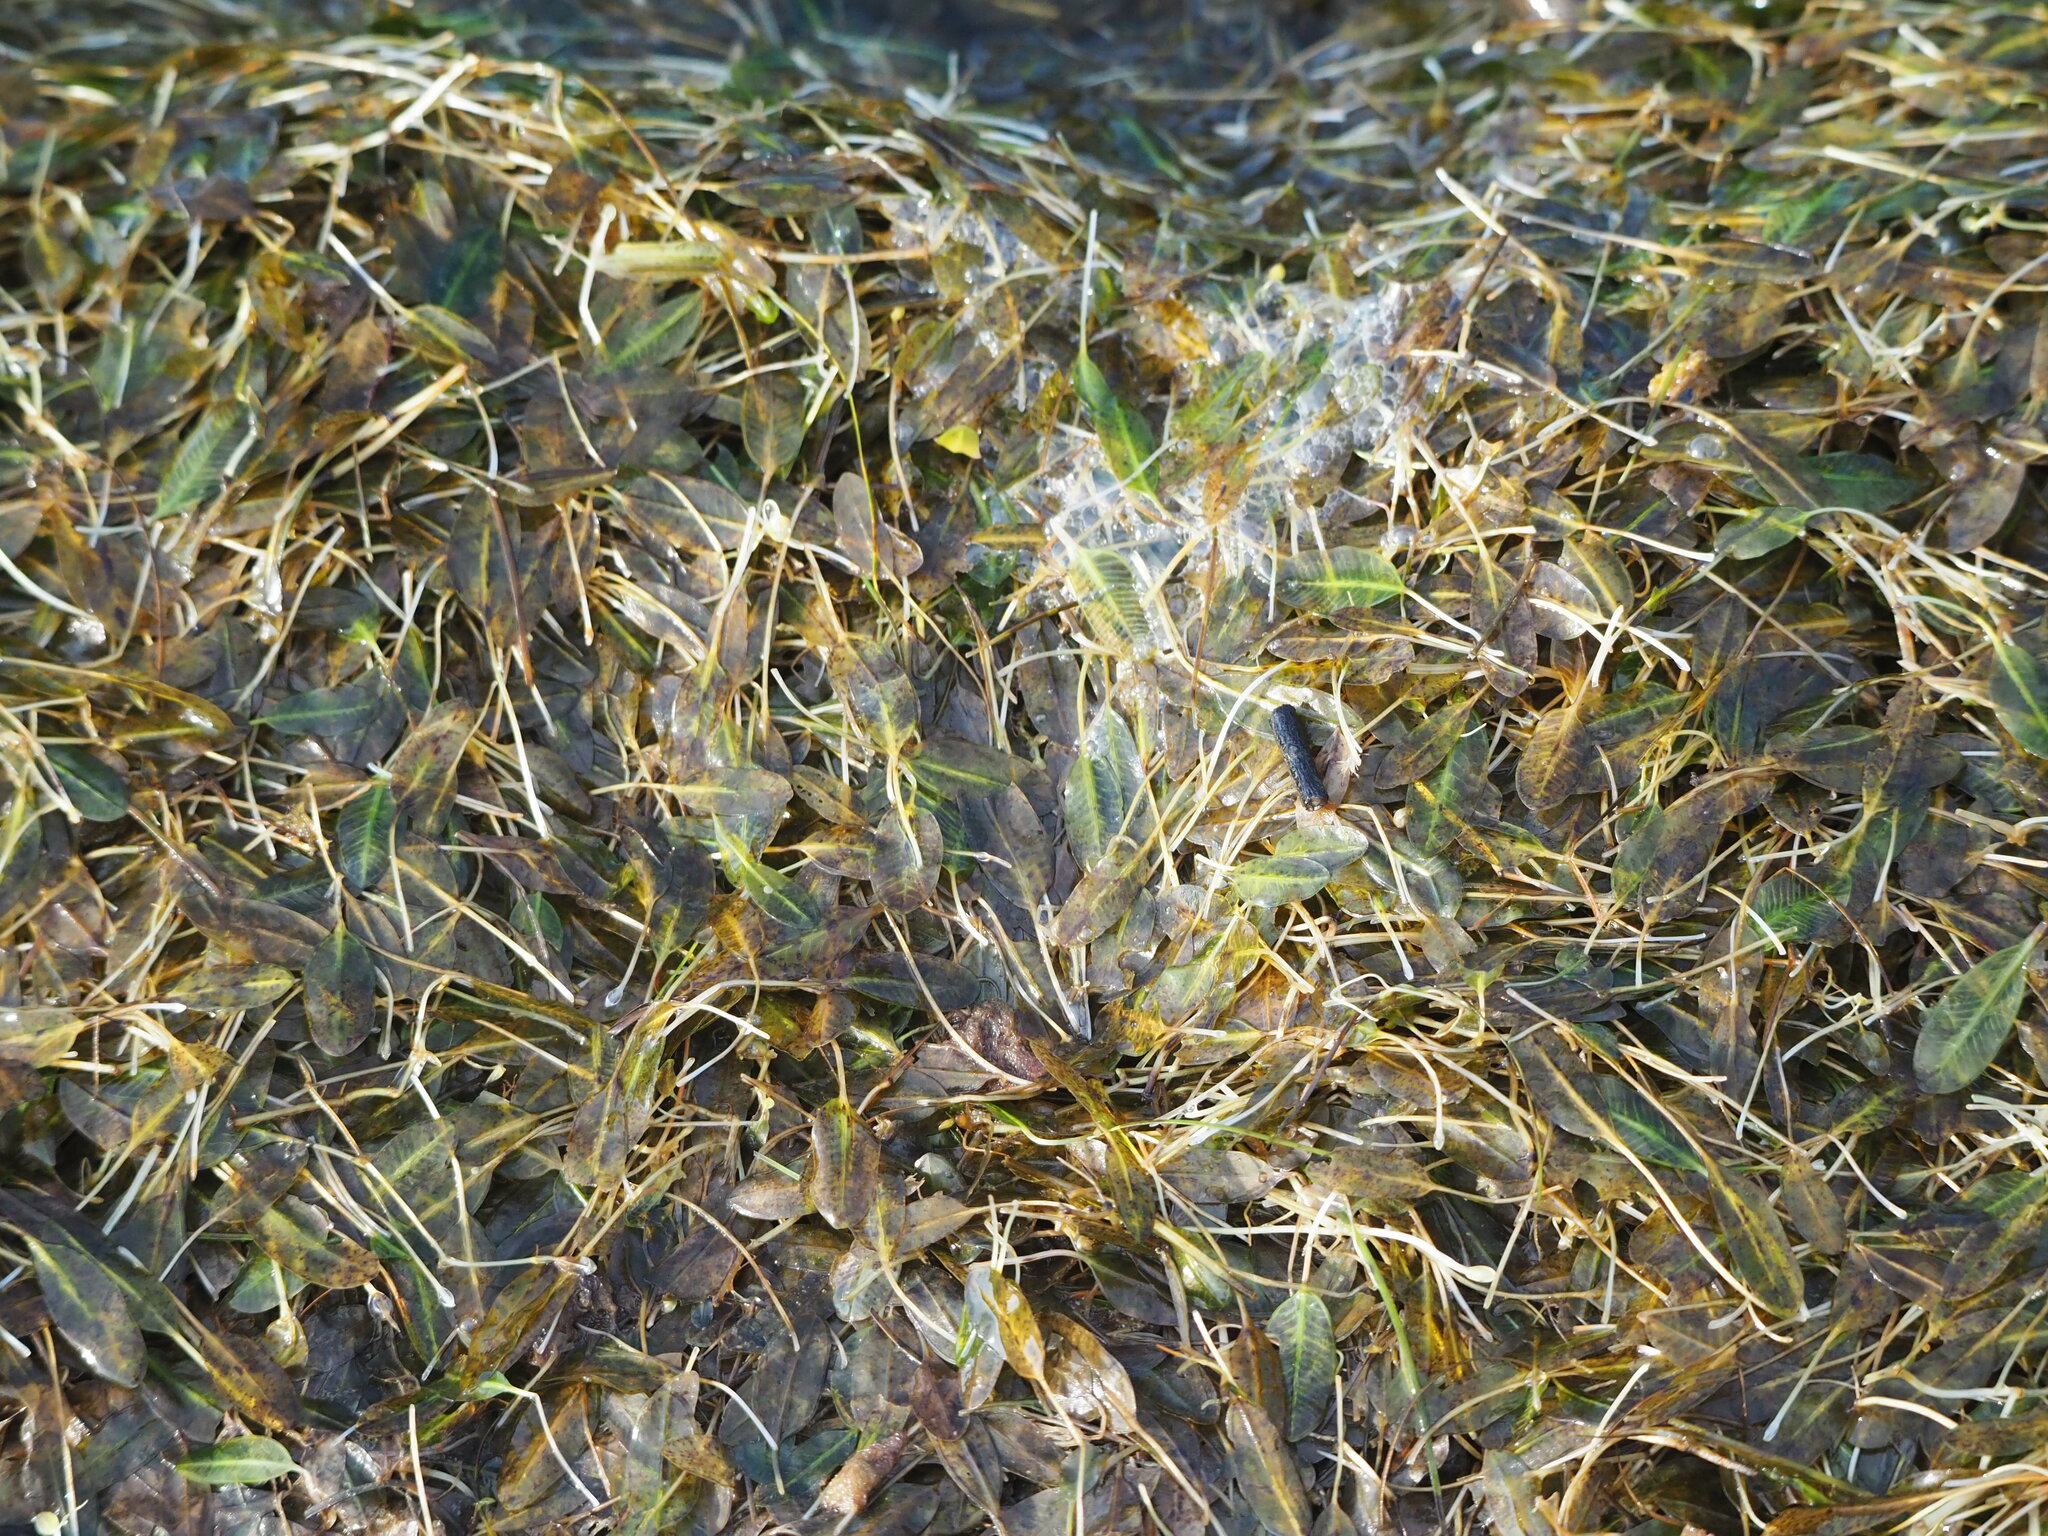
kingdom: Plantae
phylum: Tracheophyta
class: Liliopsida
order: Alismatales
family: Hydrocharitaceae
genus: Halophila
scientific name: Halophila ovalis
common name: Species code: ho
